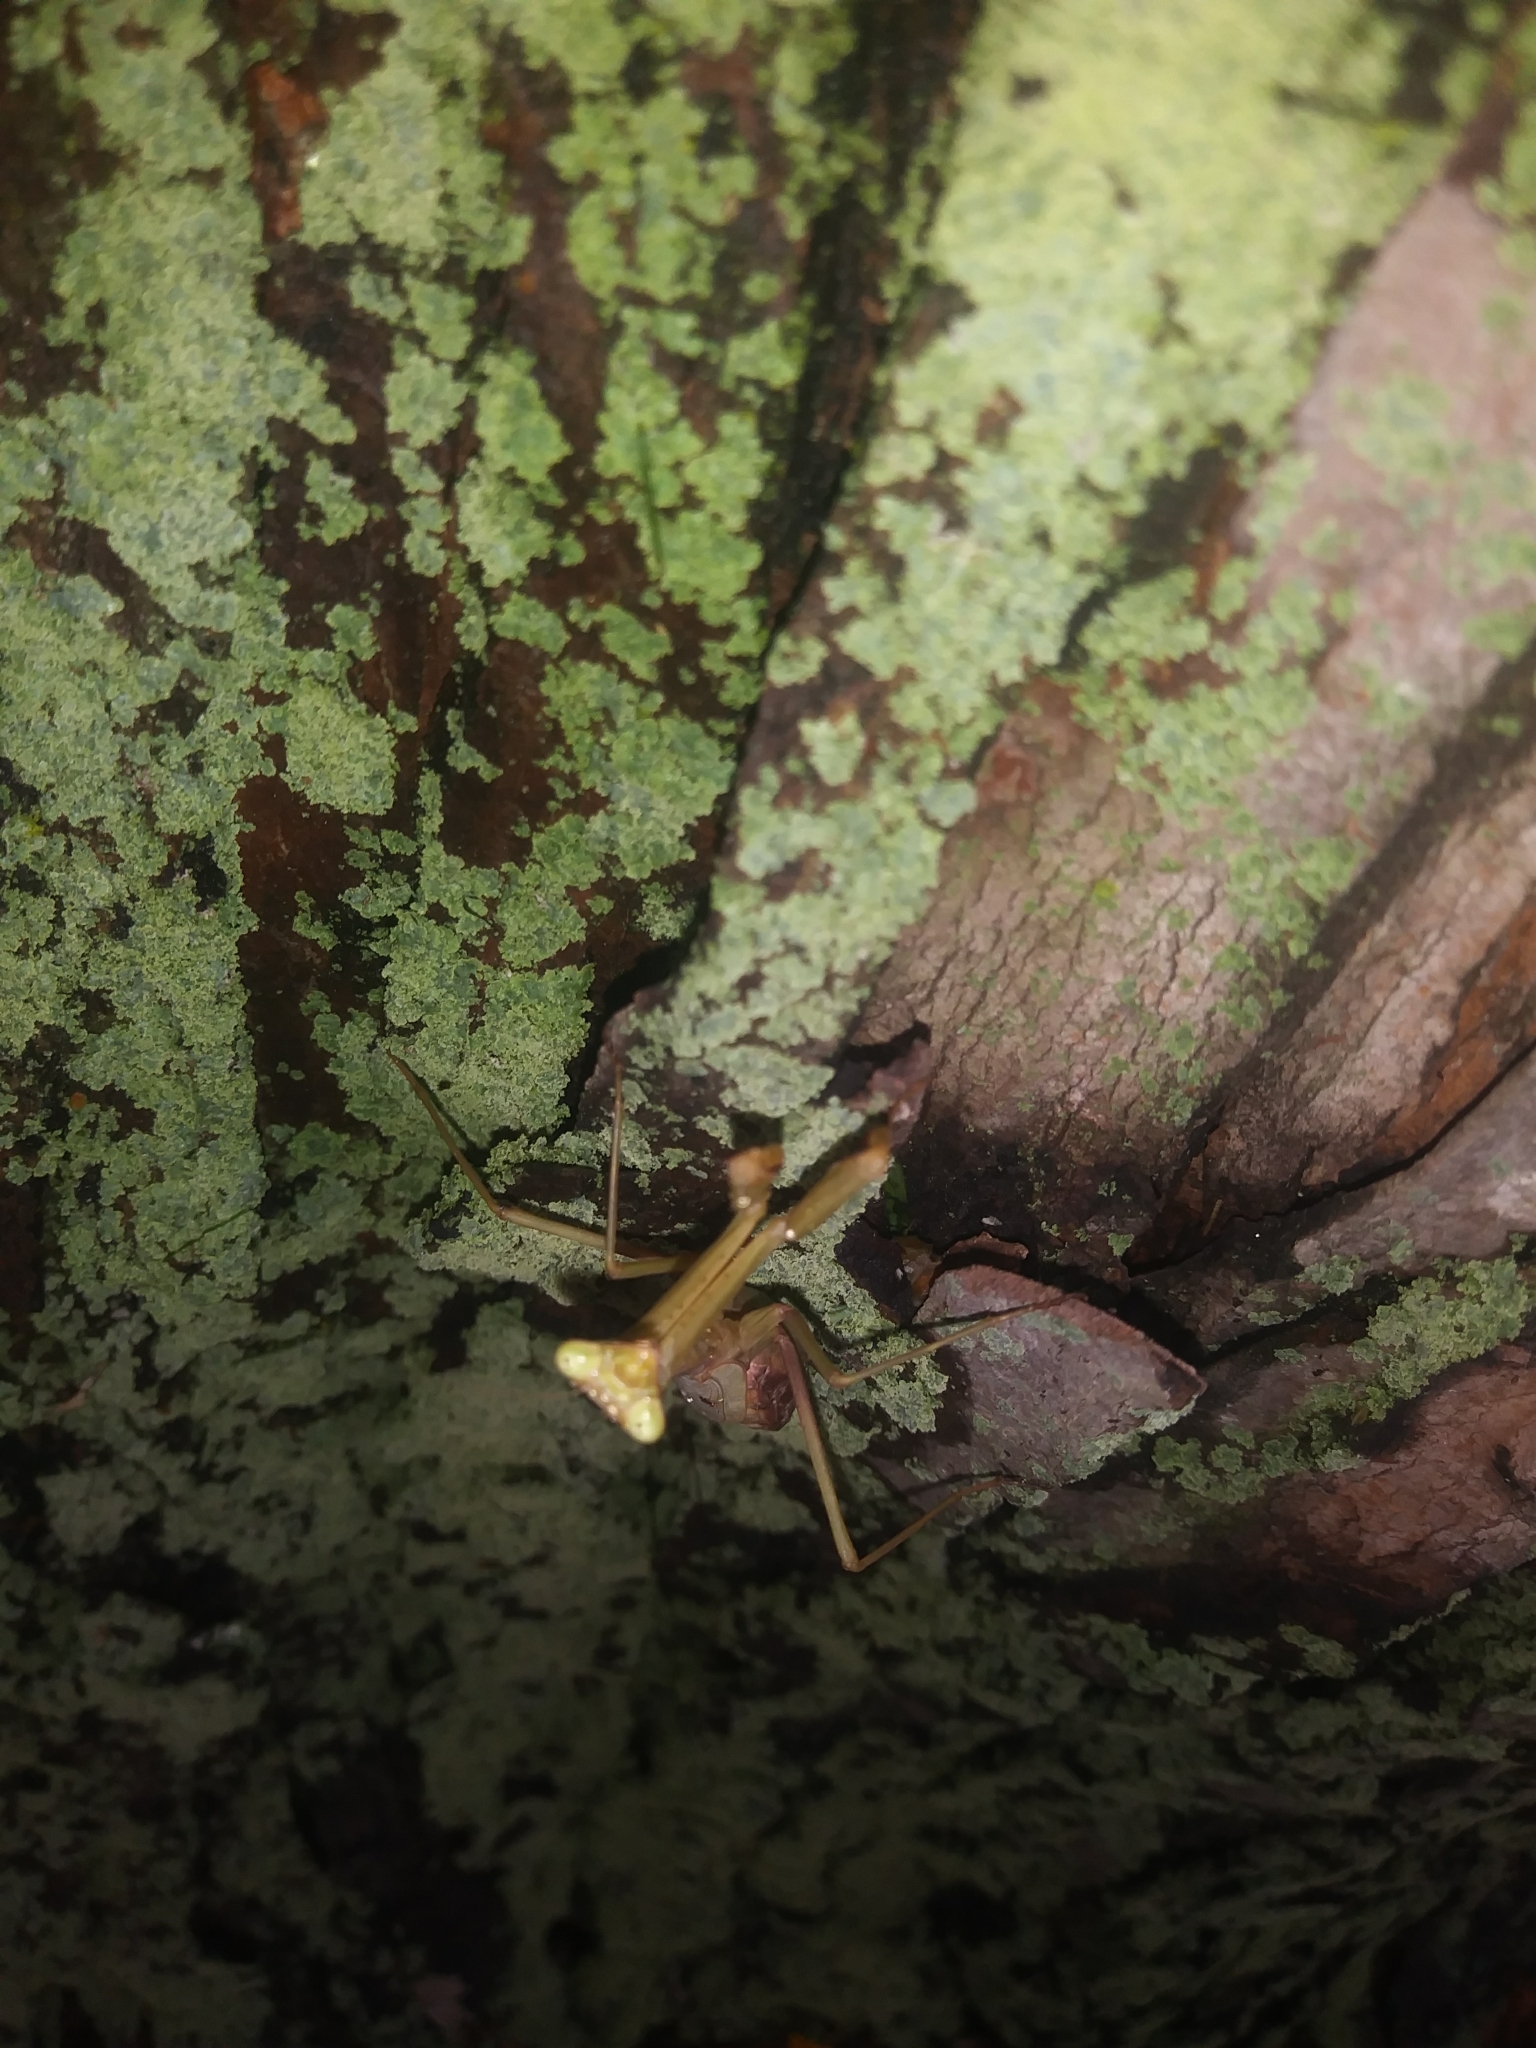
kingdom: Animalia
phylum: Arthropoda
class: Insecta
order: Mantodea
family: Mantidae
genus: Stagmomantis
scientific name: Stagmomantis carolina
